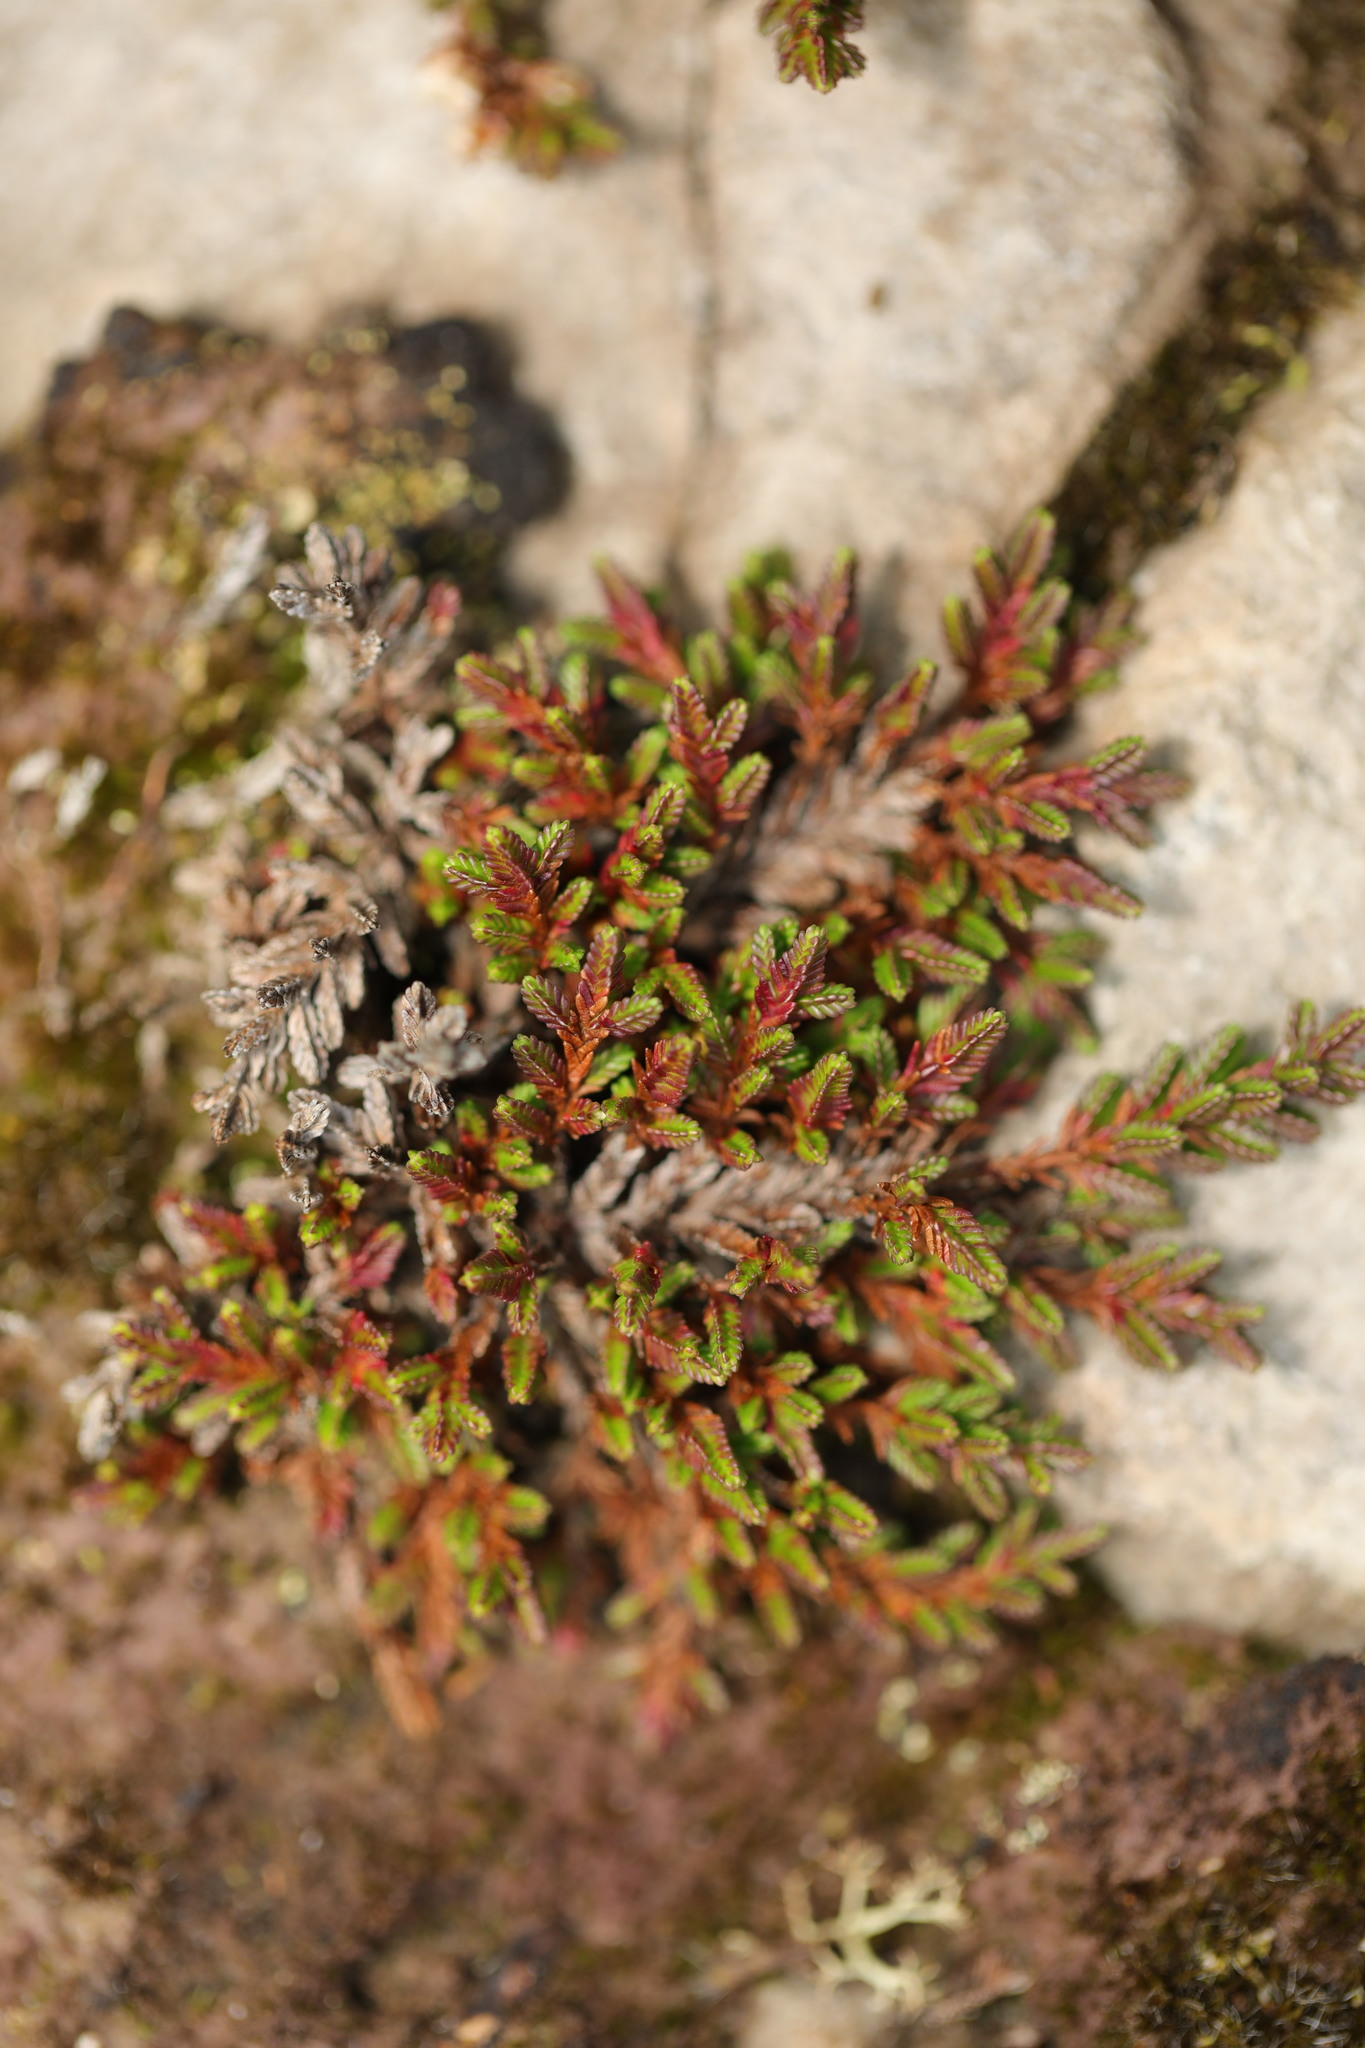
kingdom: Plantae
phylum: Tracheophyta
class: Magnoliopsida
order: Ericales
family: Ericaceae
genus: Calluna
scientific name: Calluna vulgaris
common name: Heather
